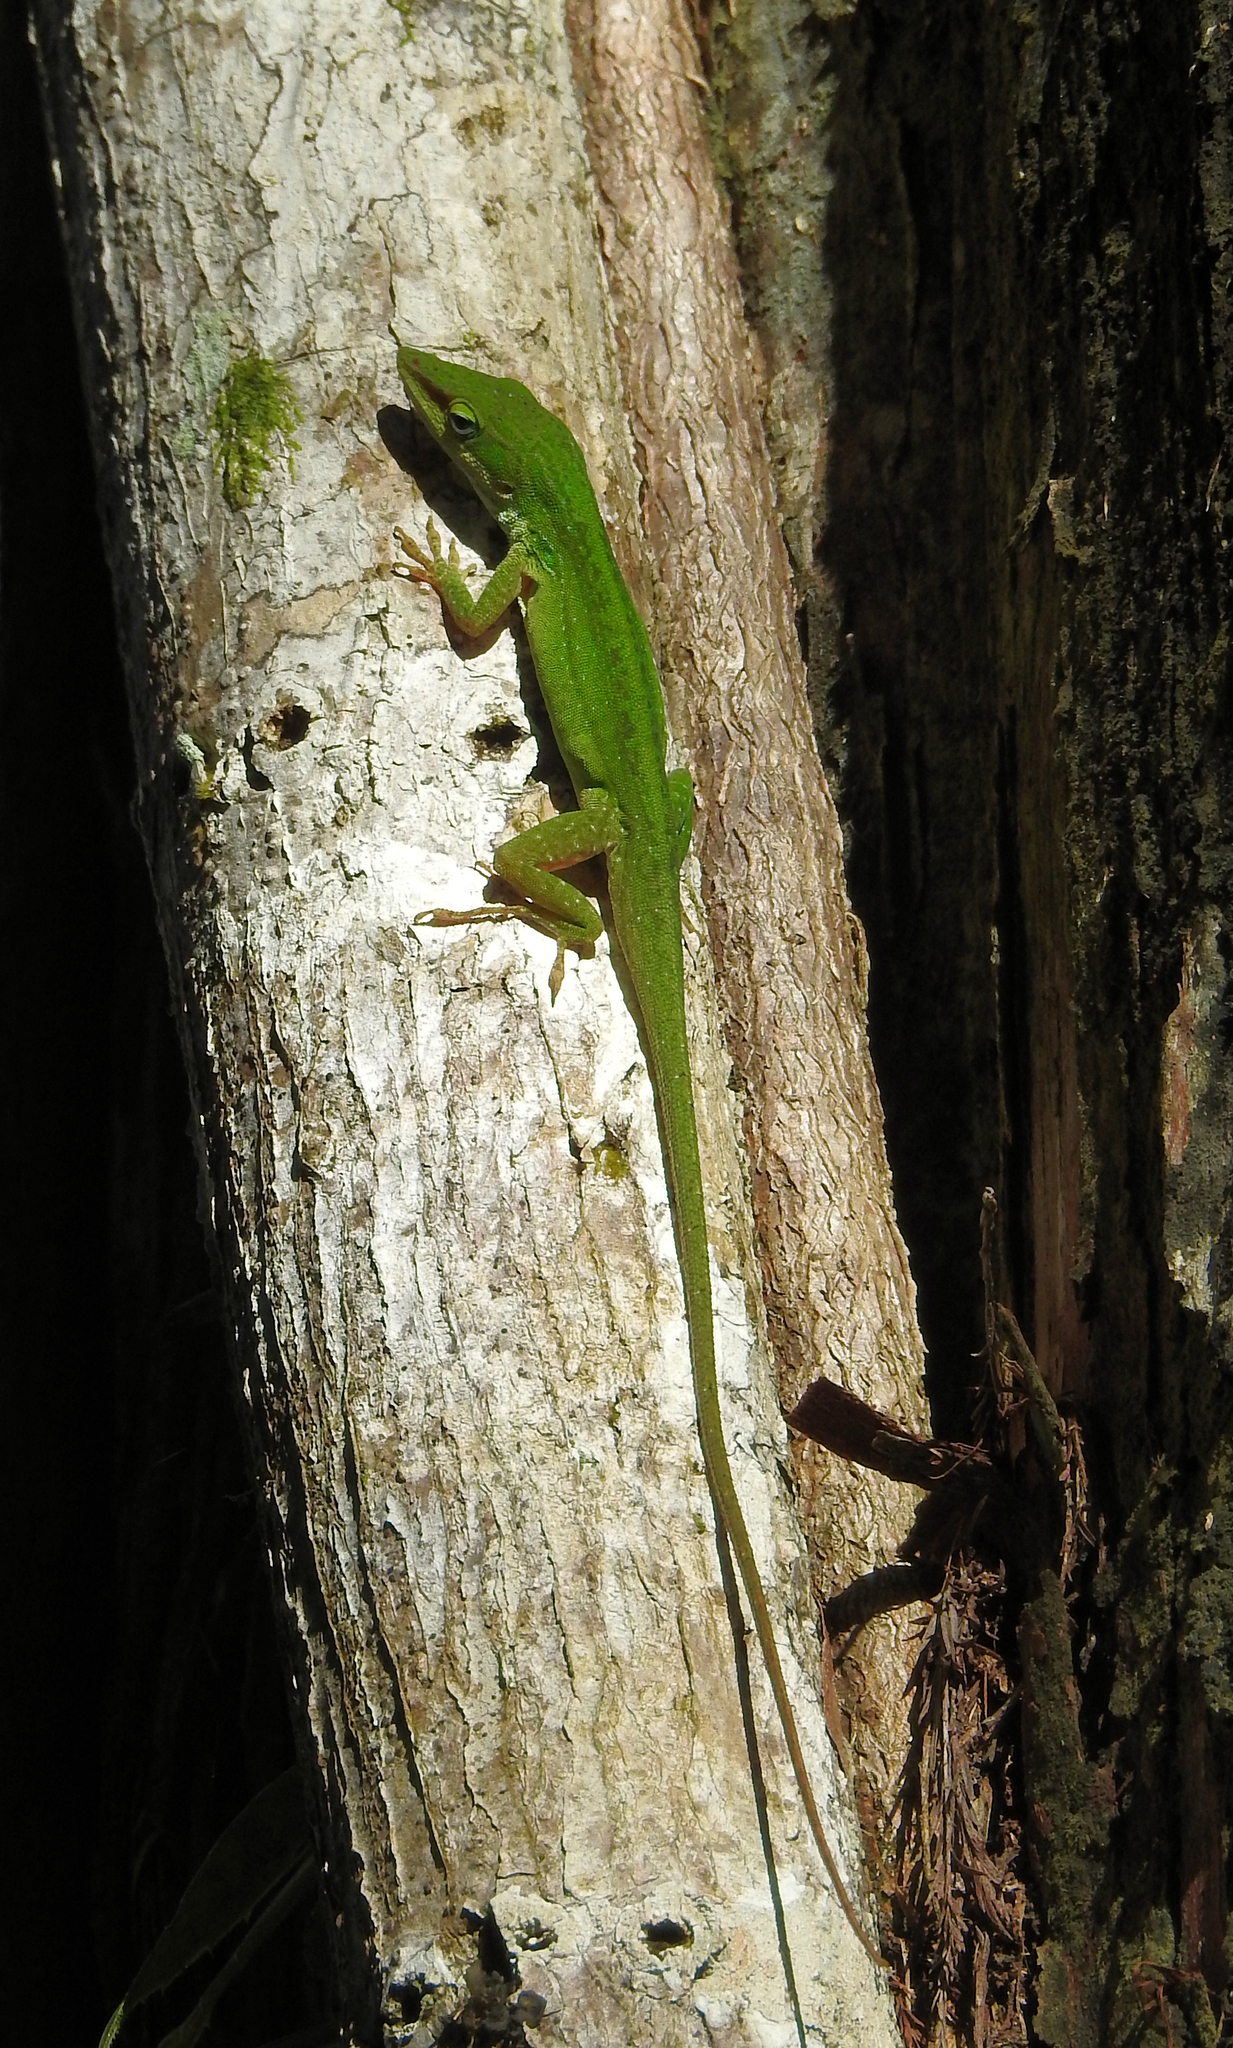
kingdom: Animalia
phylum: Chordata
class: Squamata
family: Dactyloidae
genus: Anolis
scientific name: Anolis carolinensis
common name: Green anole
